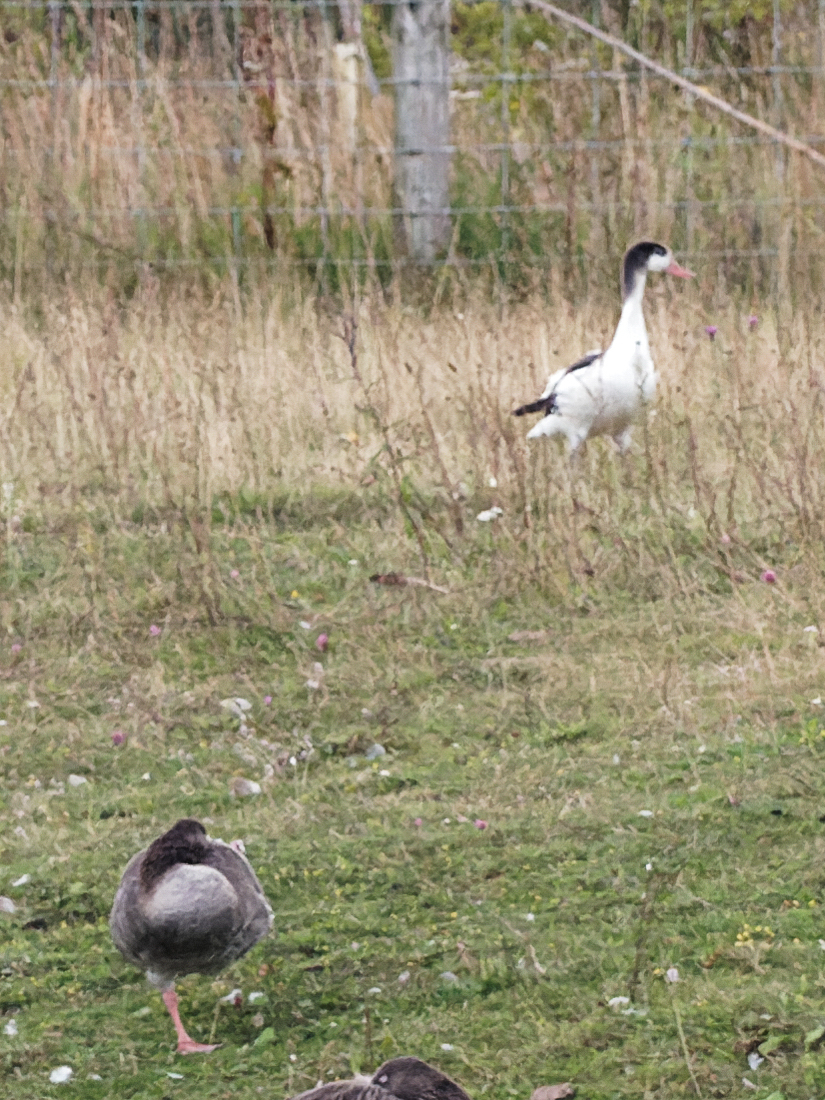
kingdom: Animalia
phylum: Chordata
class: Aves
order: Anseriformes
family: Anatidae
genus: Tadorna
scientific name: Tadorna tadorna
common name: Common shelduck
